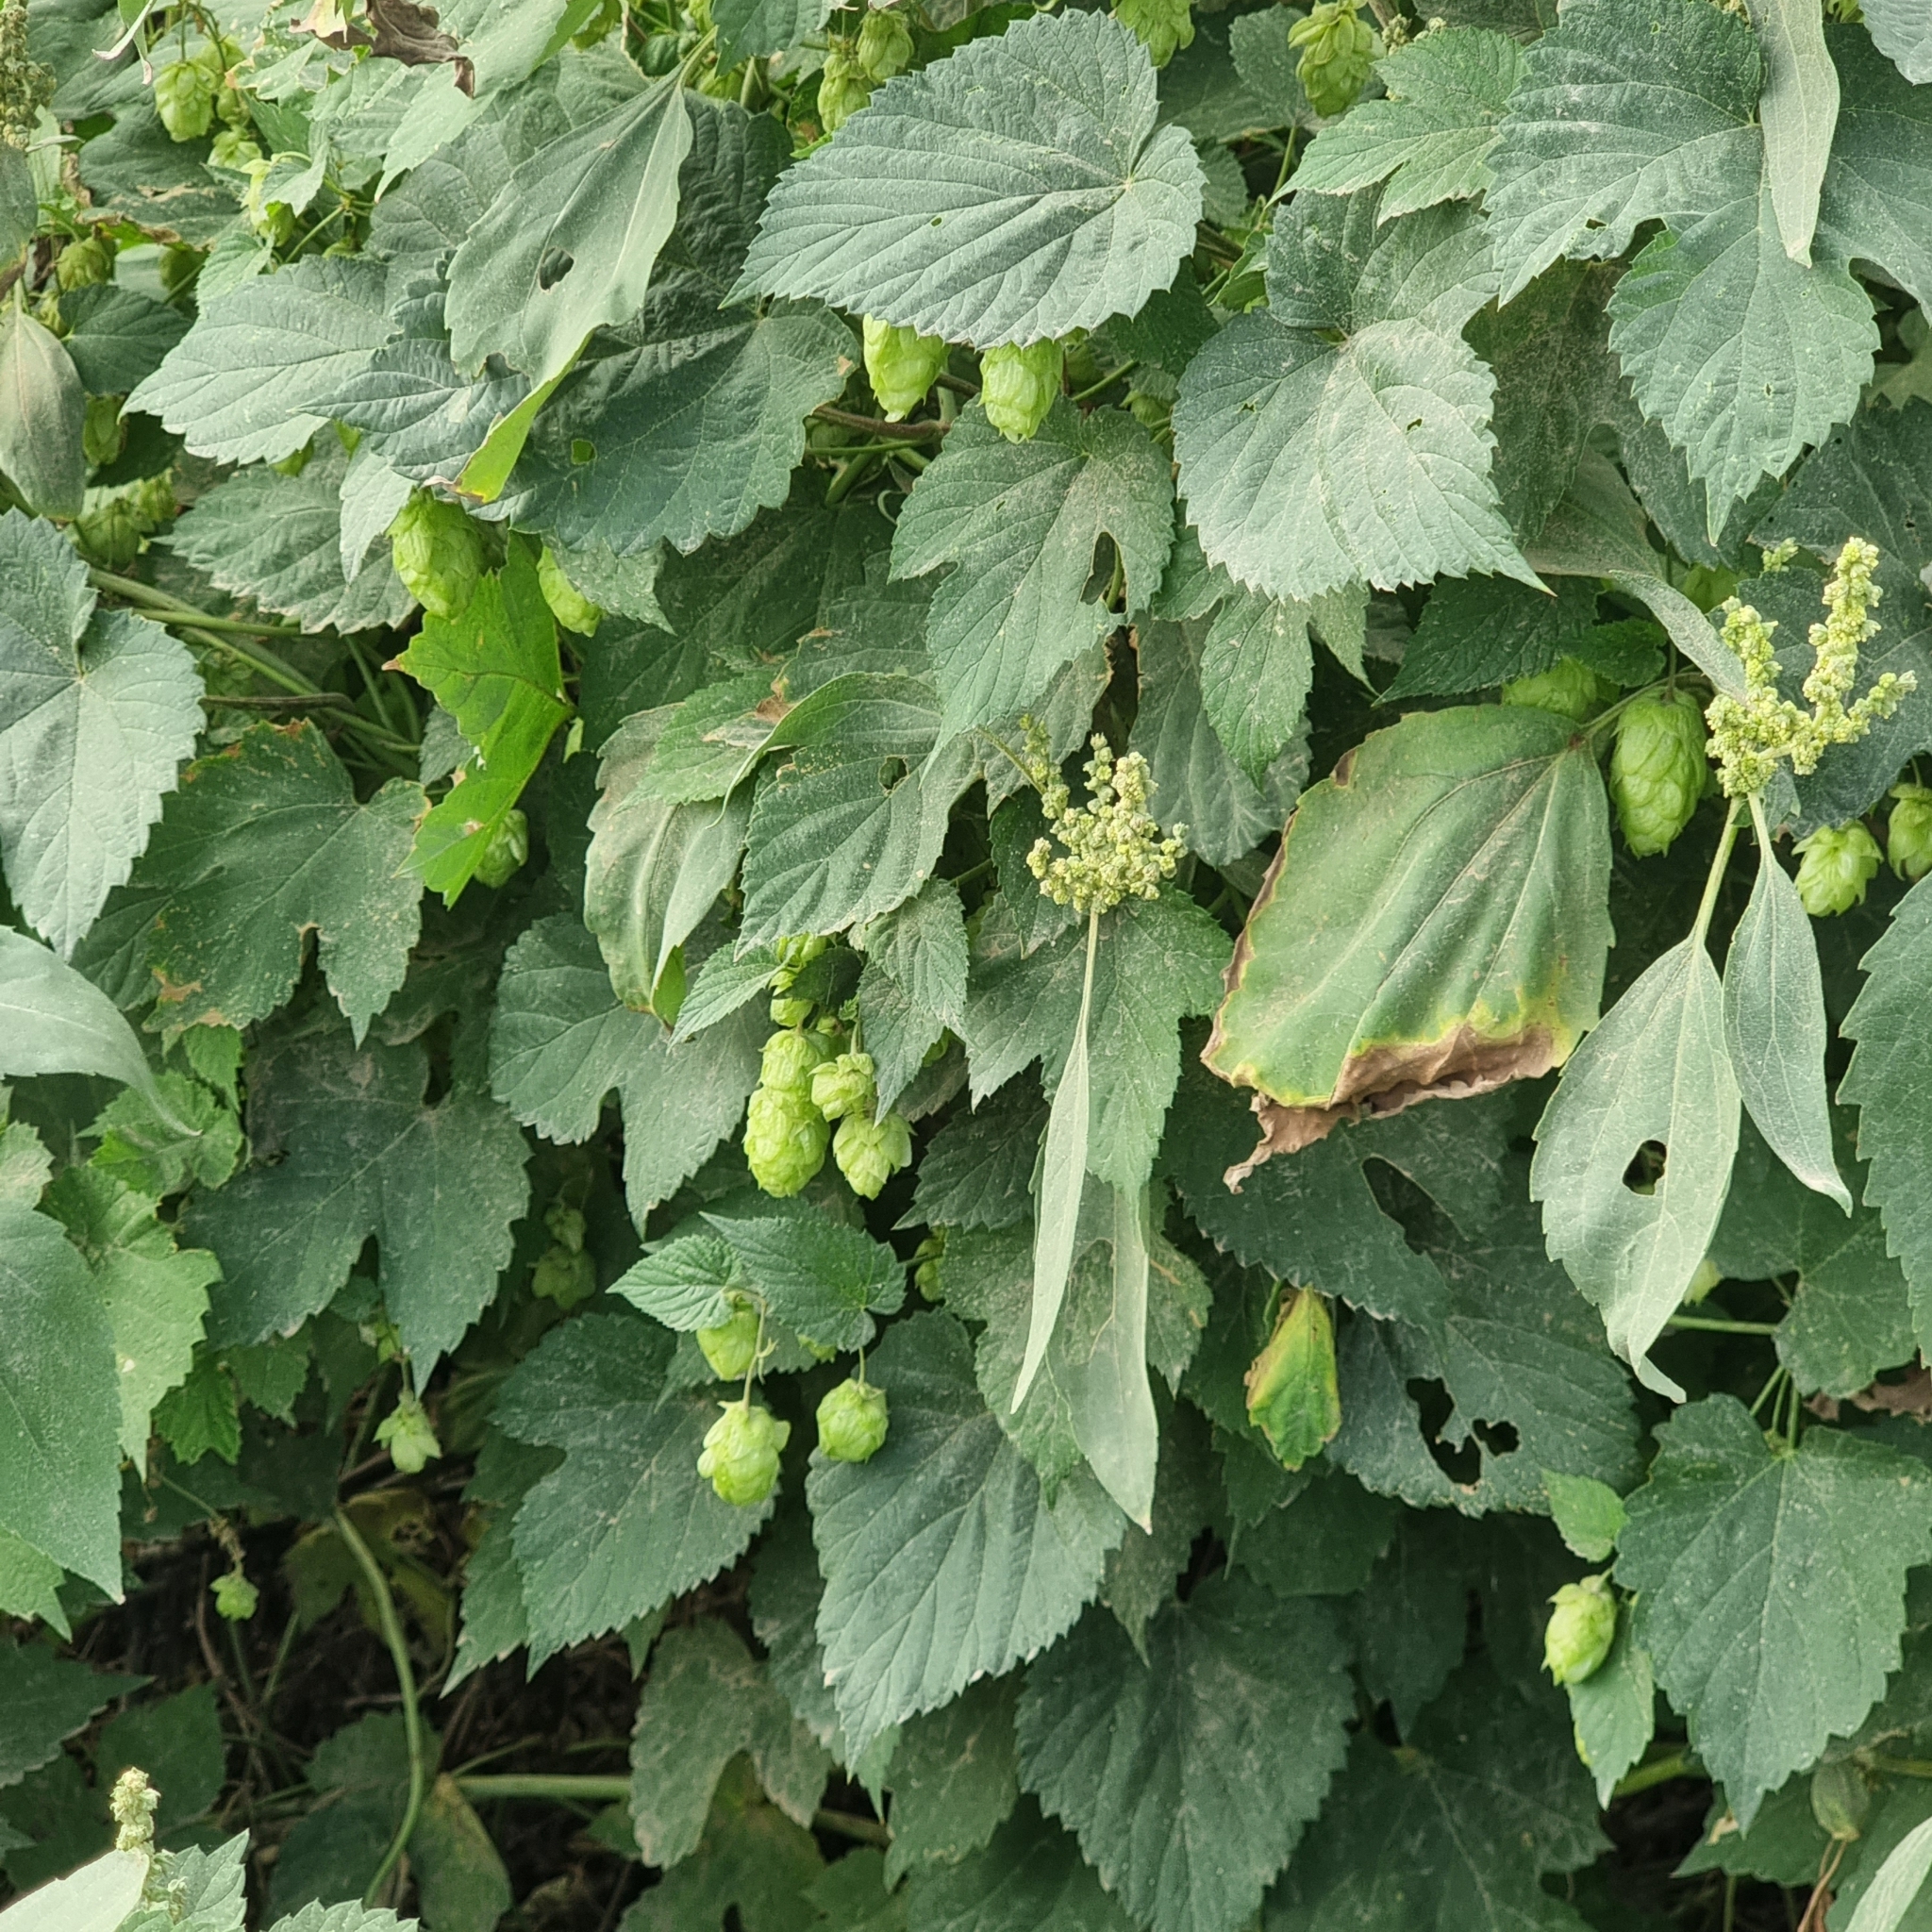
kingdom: Plantae
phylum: Tracheophyta
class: Magnoliopsida
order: Rosales
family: Cannabaceae
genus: Humulus
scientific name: Humulus lupulus
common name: Hop
